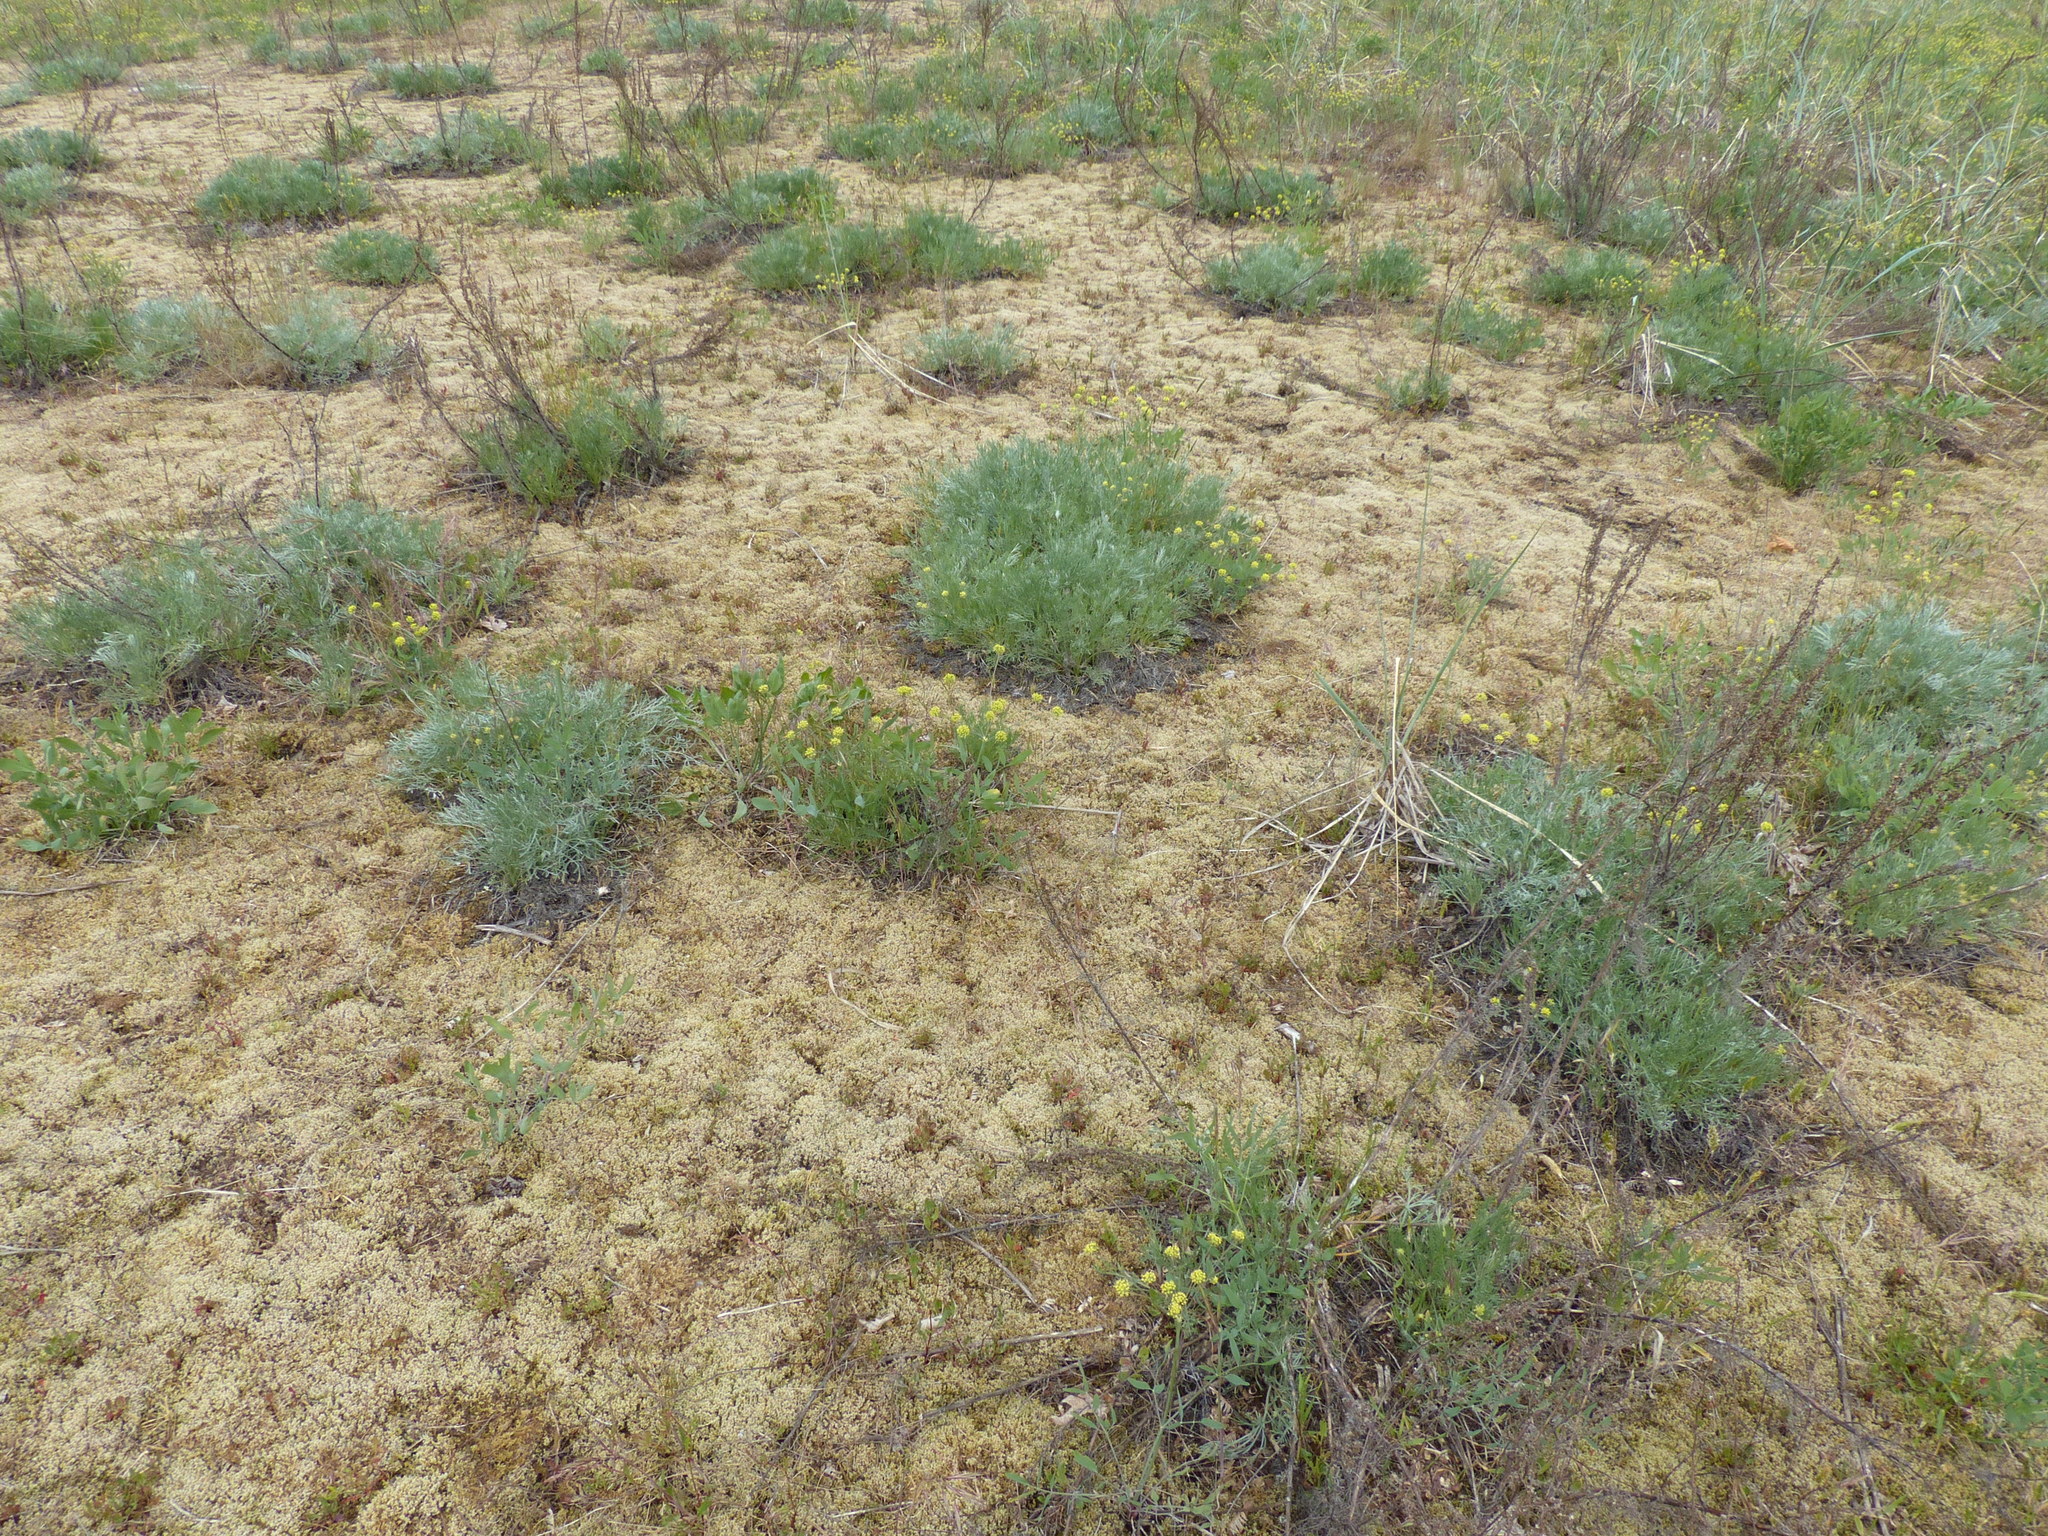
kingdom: Plantae
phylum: Tracheophyta
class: Magnoliopsida
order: Asterales
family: Asteraceae
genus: Artemisia
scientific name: Artemisia campestris
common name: Field wormwood
